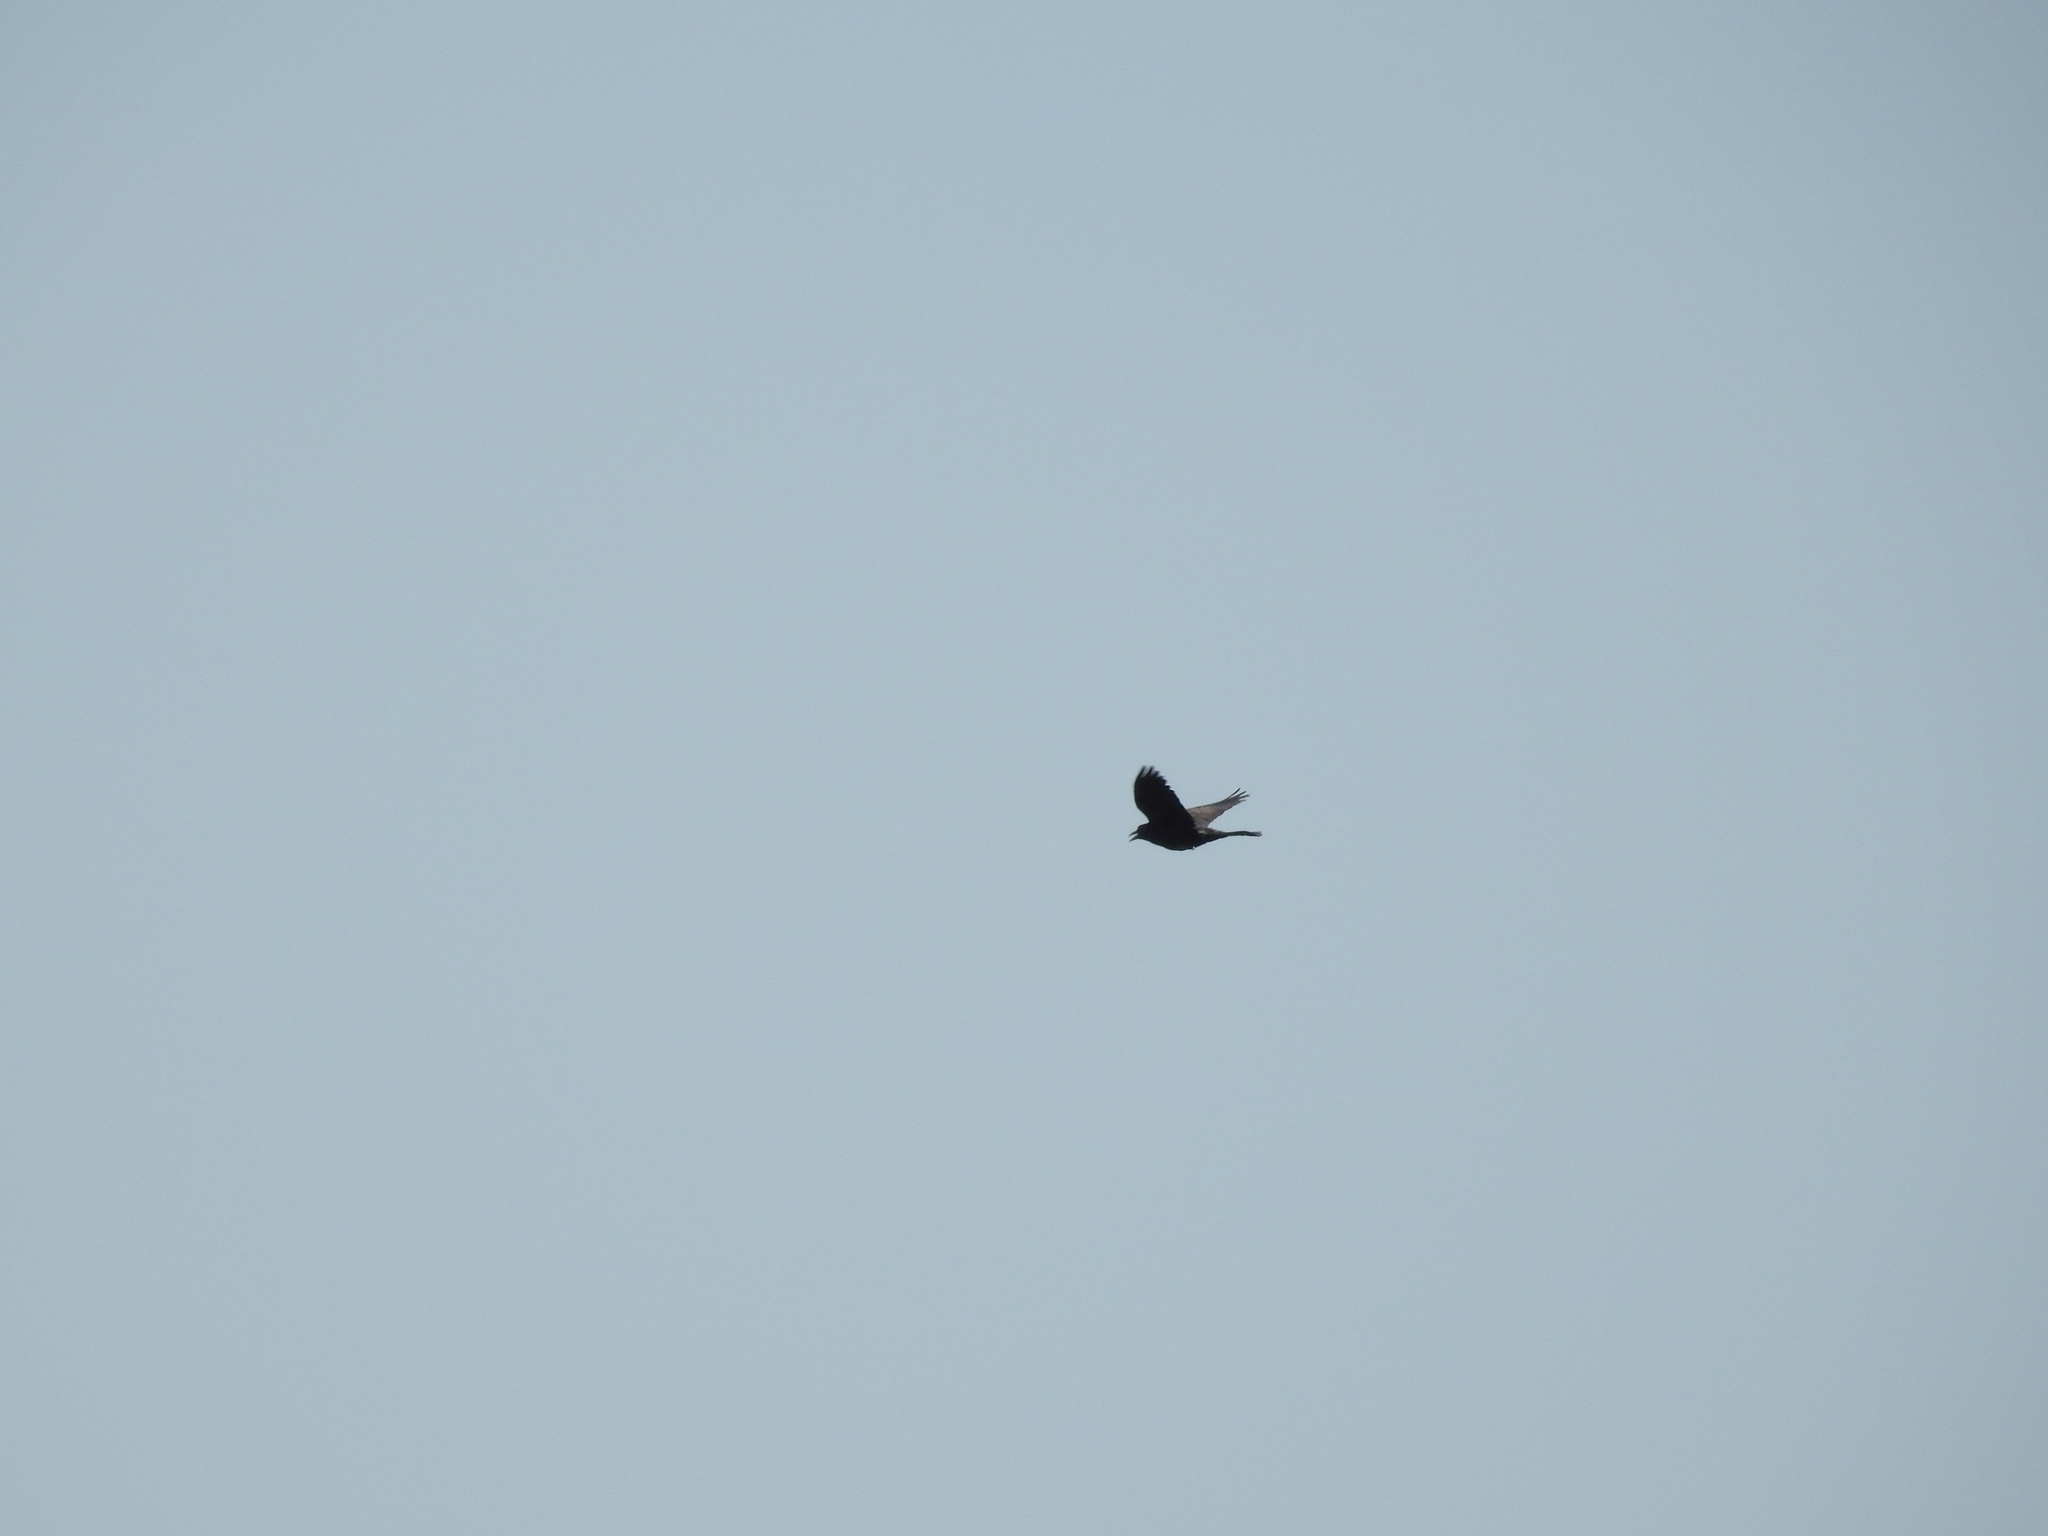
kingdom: Animalia
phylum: Chordata
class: Aves
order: Passeriformes
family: Corvidae
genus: Corvus
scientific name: Corvus brachyrhynchos
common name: American crow
